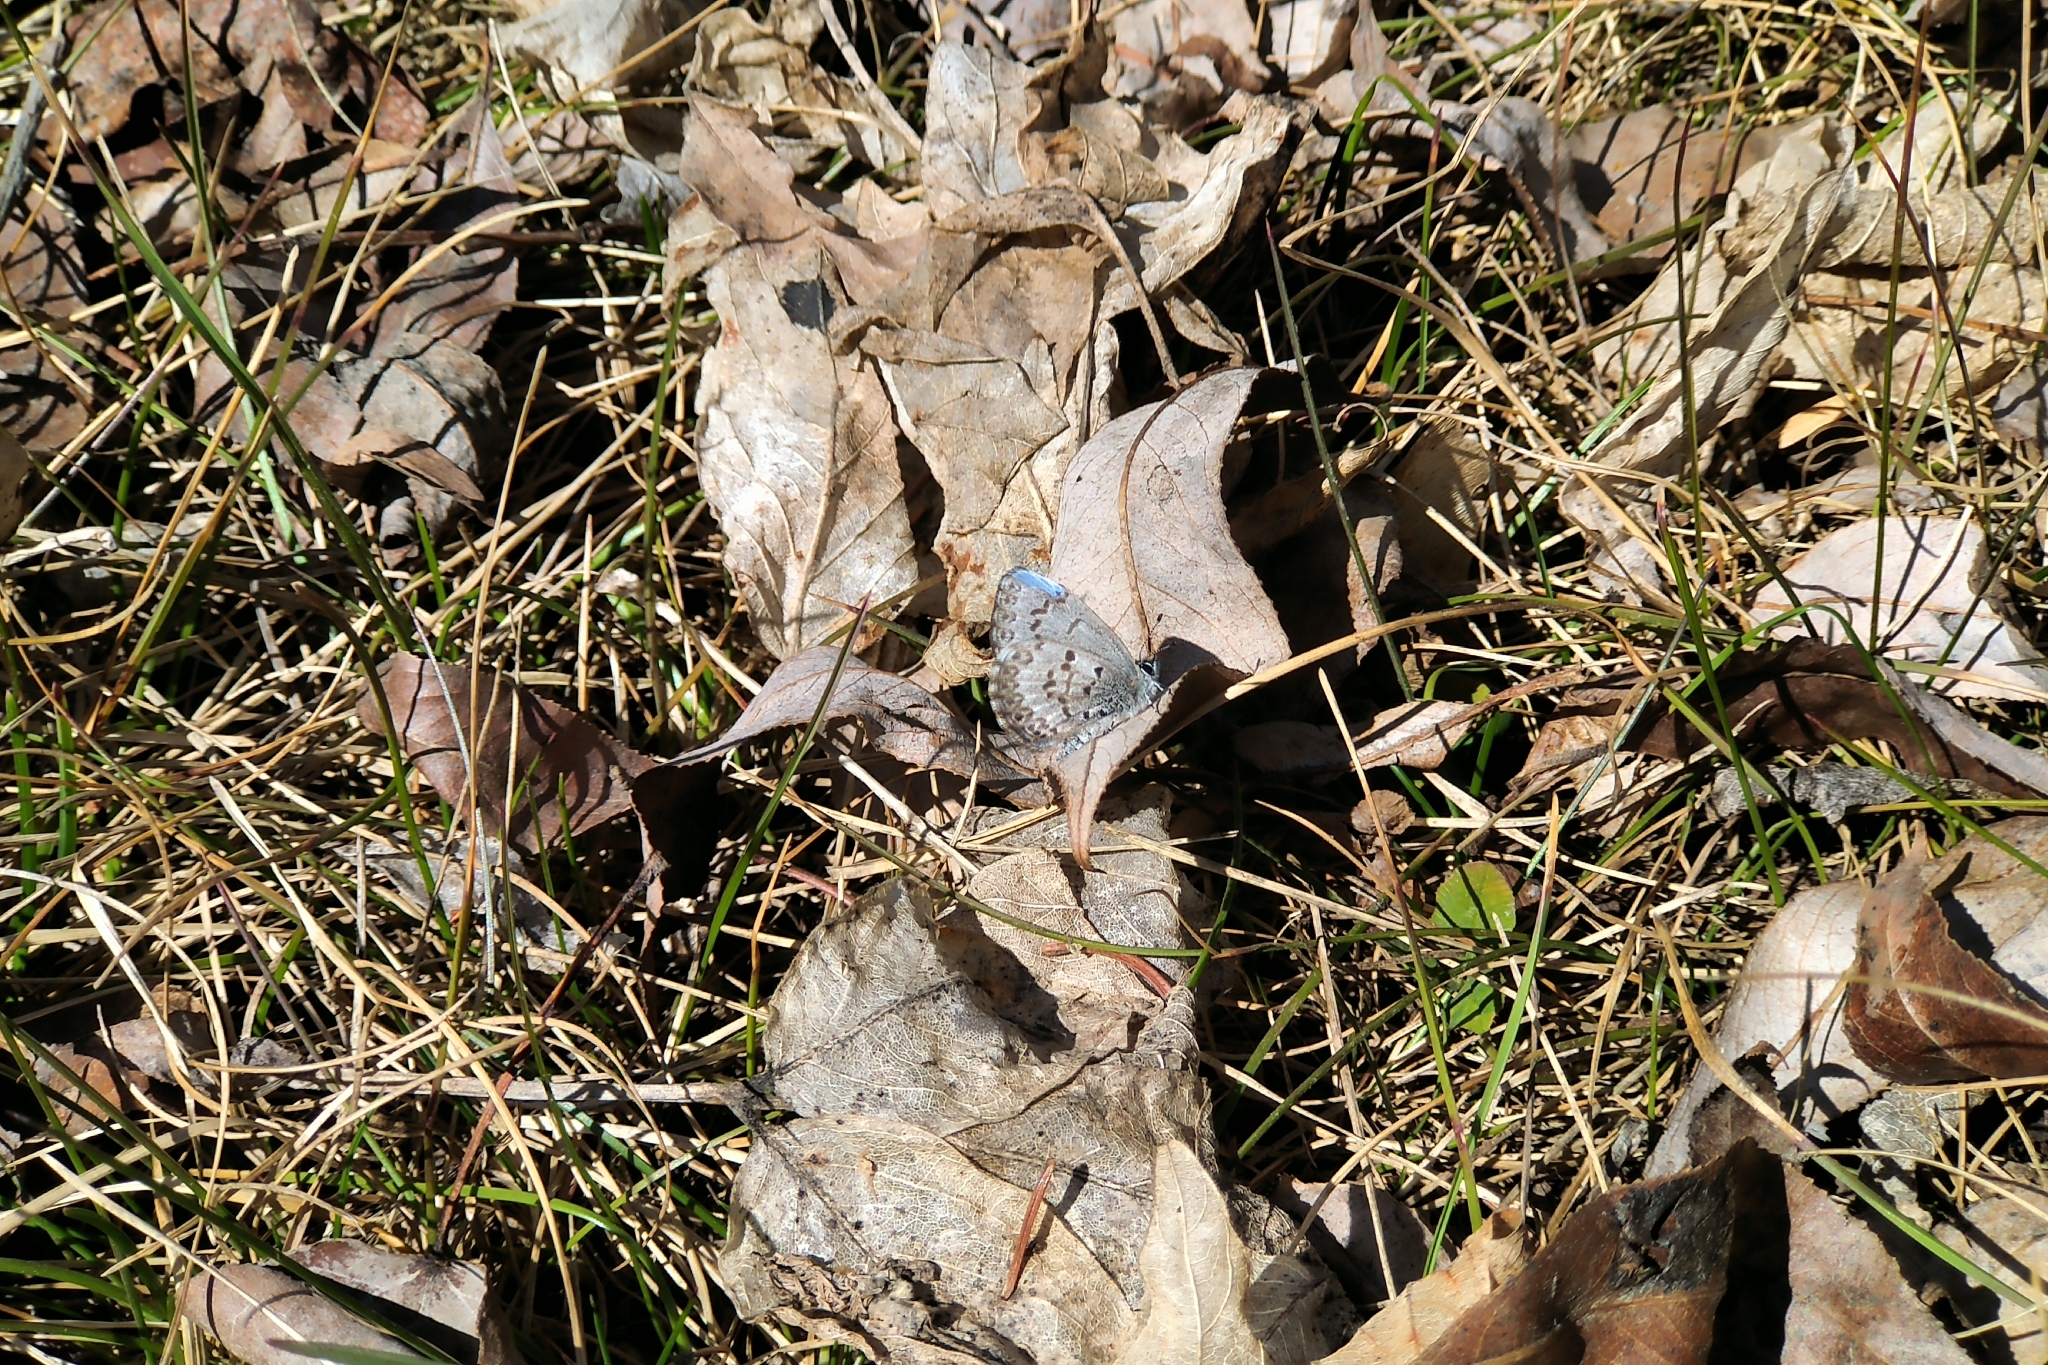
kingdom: Animalia
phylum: Arthropoda
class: Insecta
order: Lepidoptera
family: Lycaenidae
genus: Celastrina
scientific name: Celastrina lucia
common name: Lucia azure
